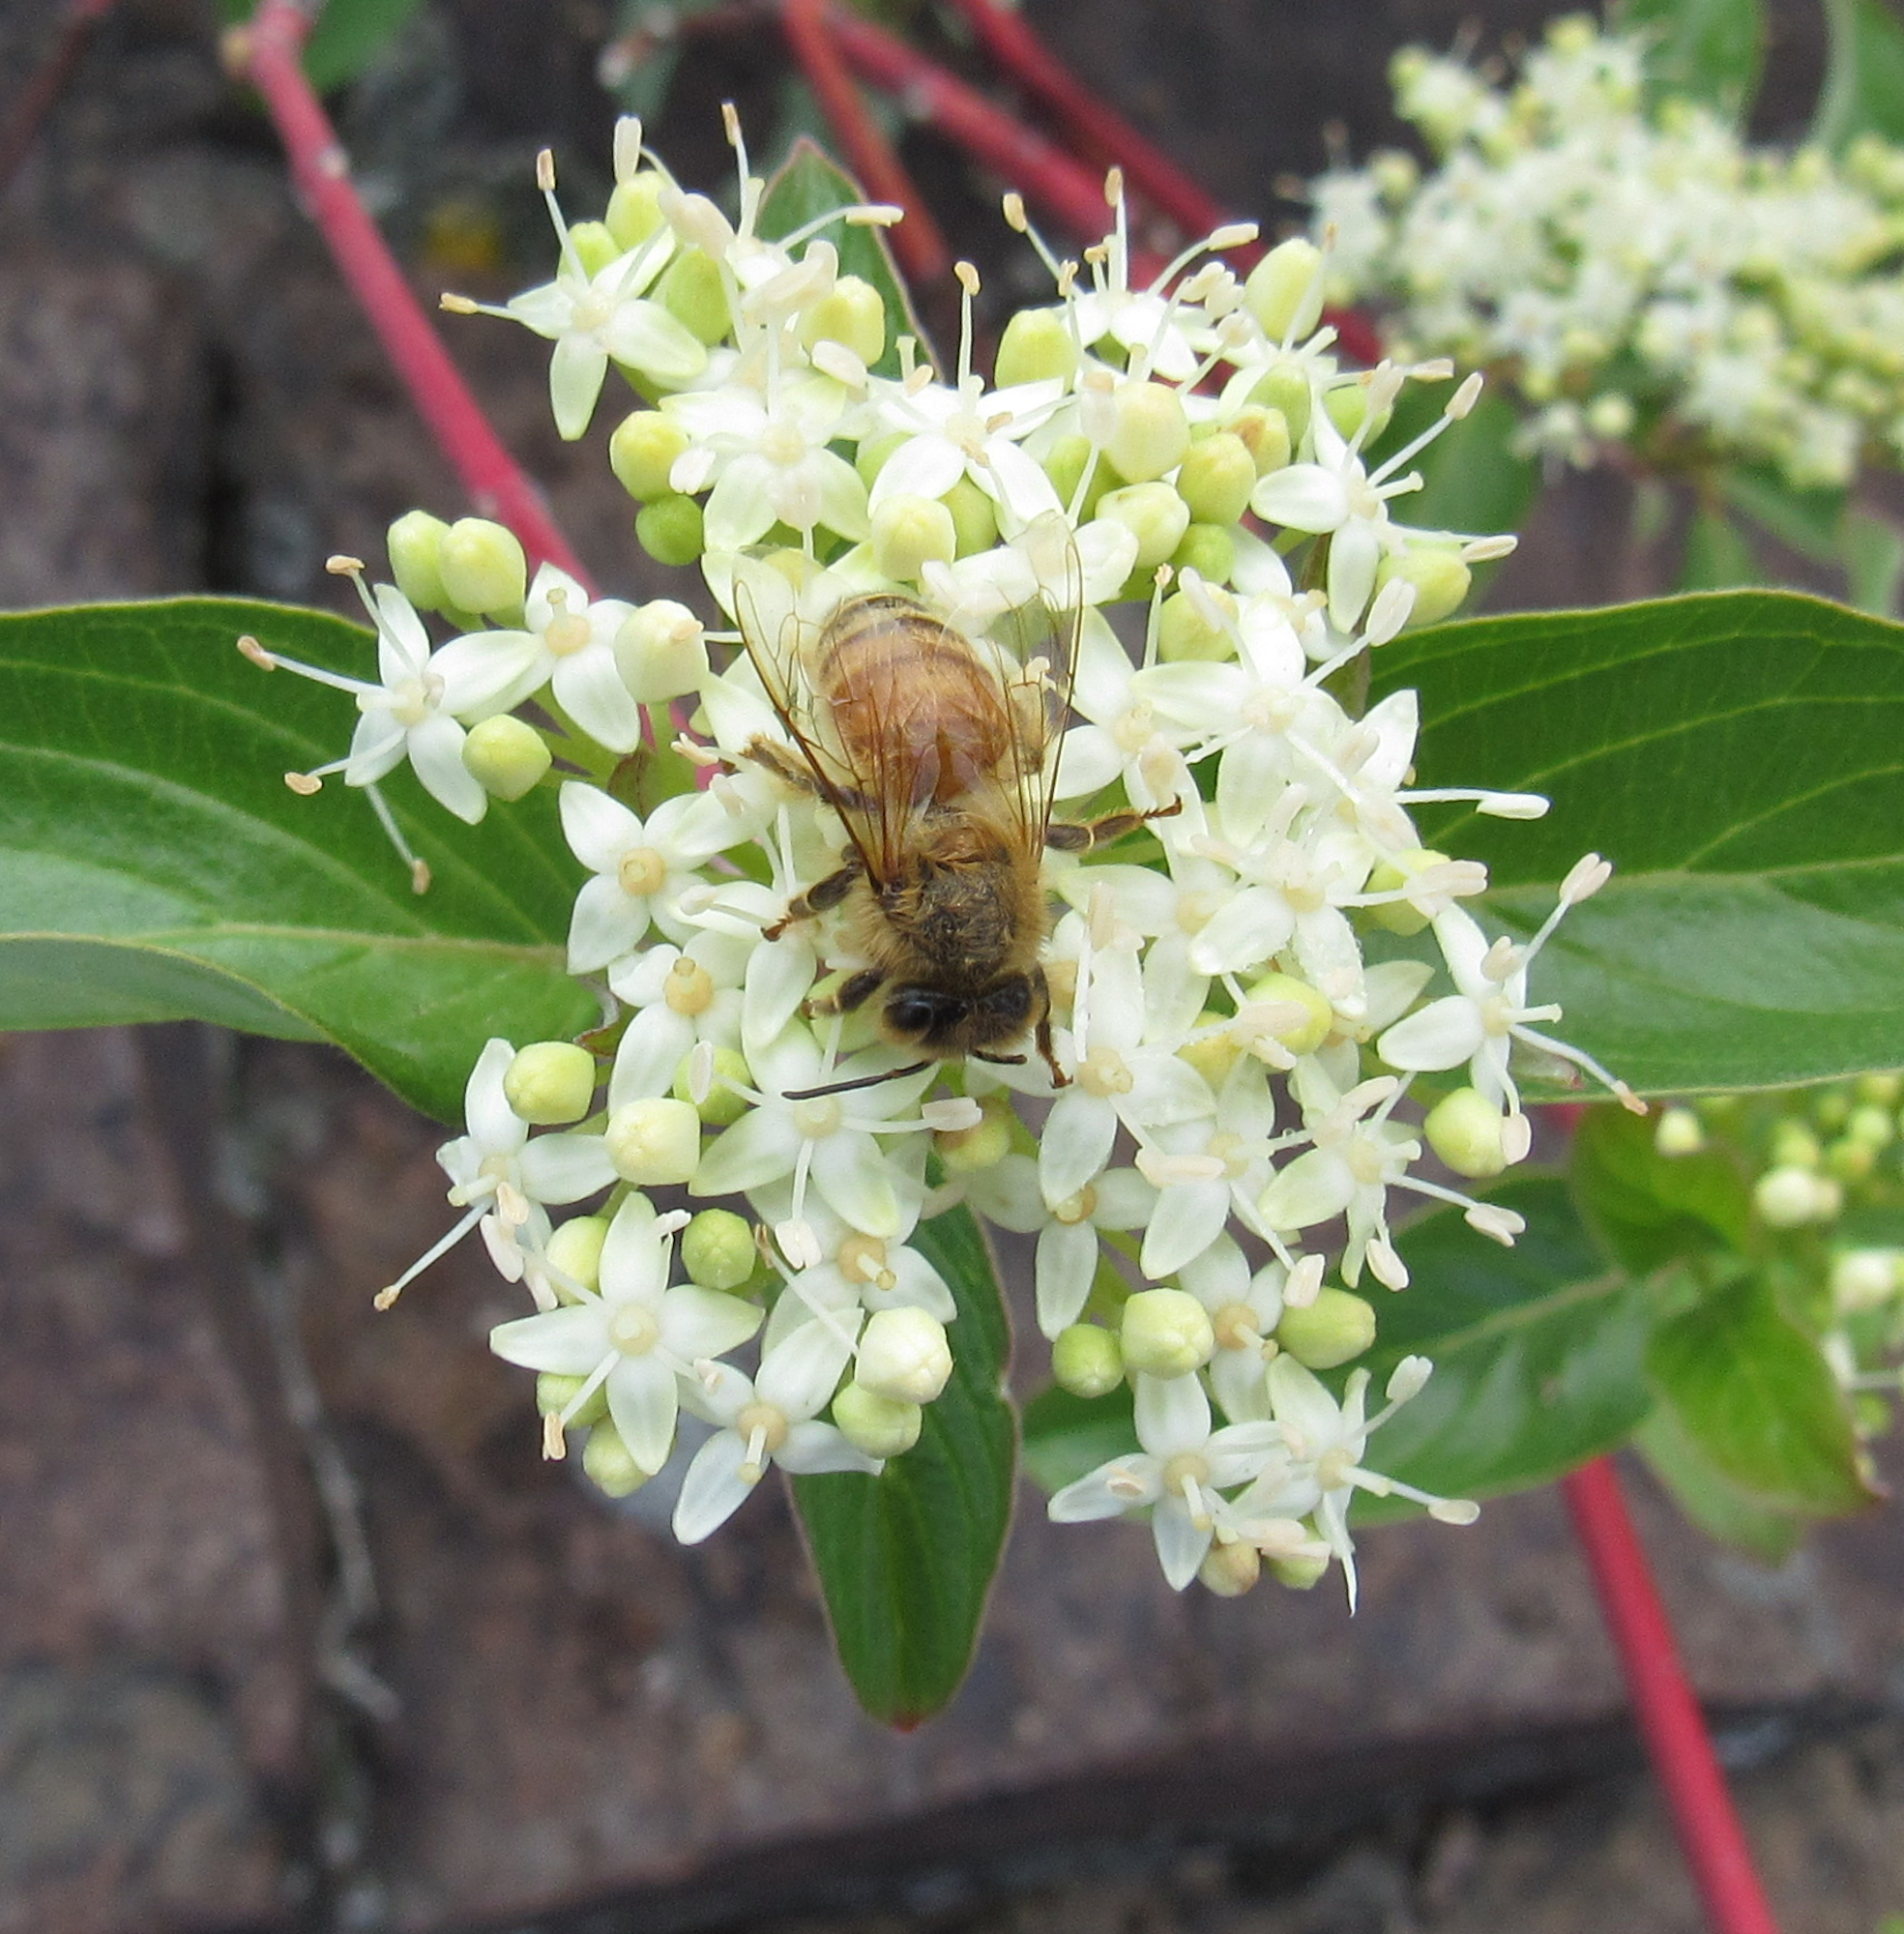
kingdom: Animalia
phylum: Arthropoda
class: Insecta
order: Hymenoptera
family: Apidae
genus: Apis
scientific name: Apis mellifera
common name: Honey bee
